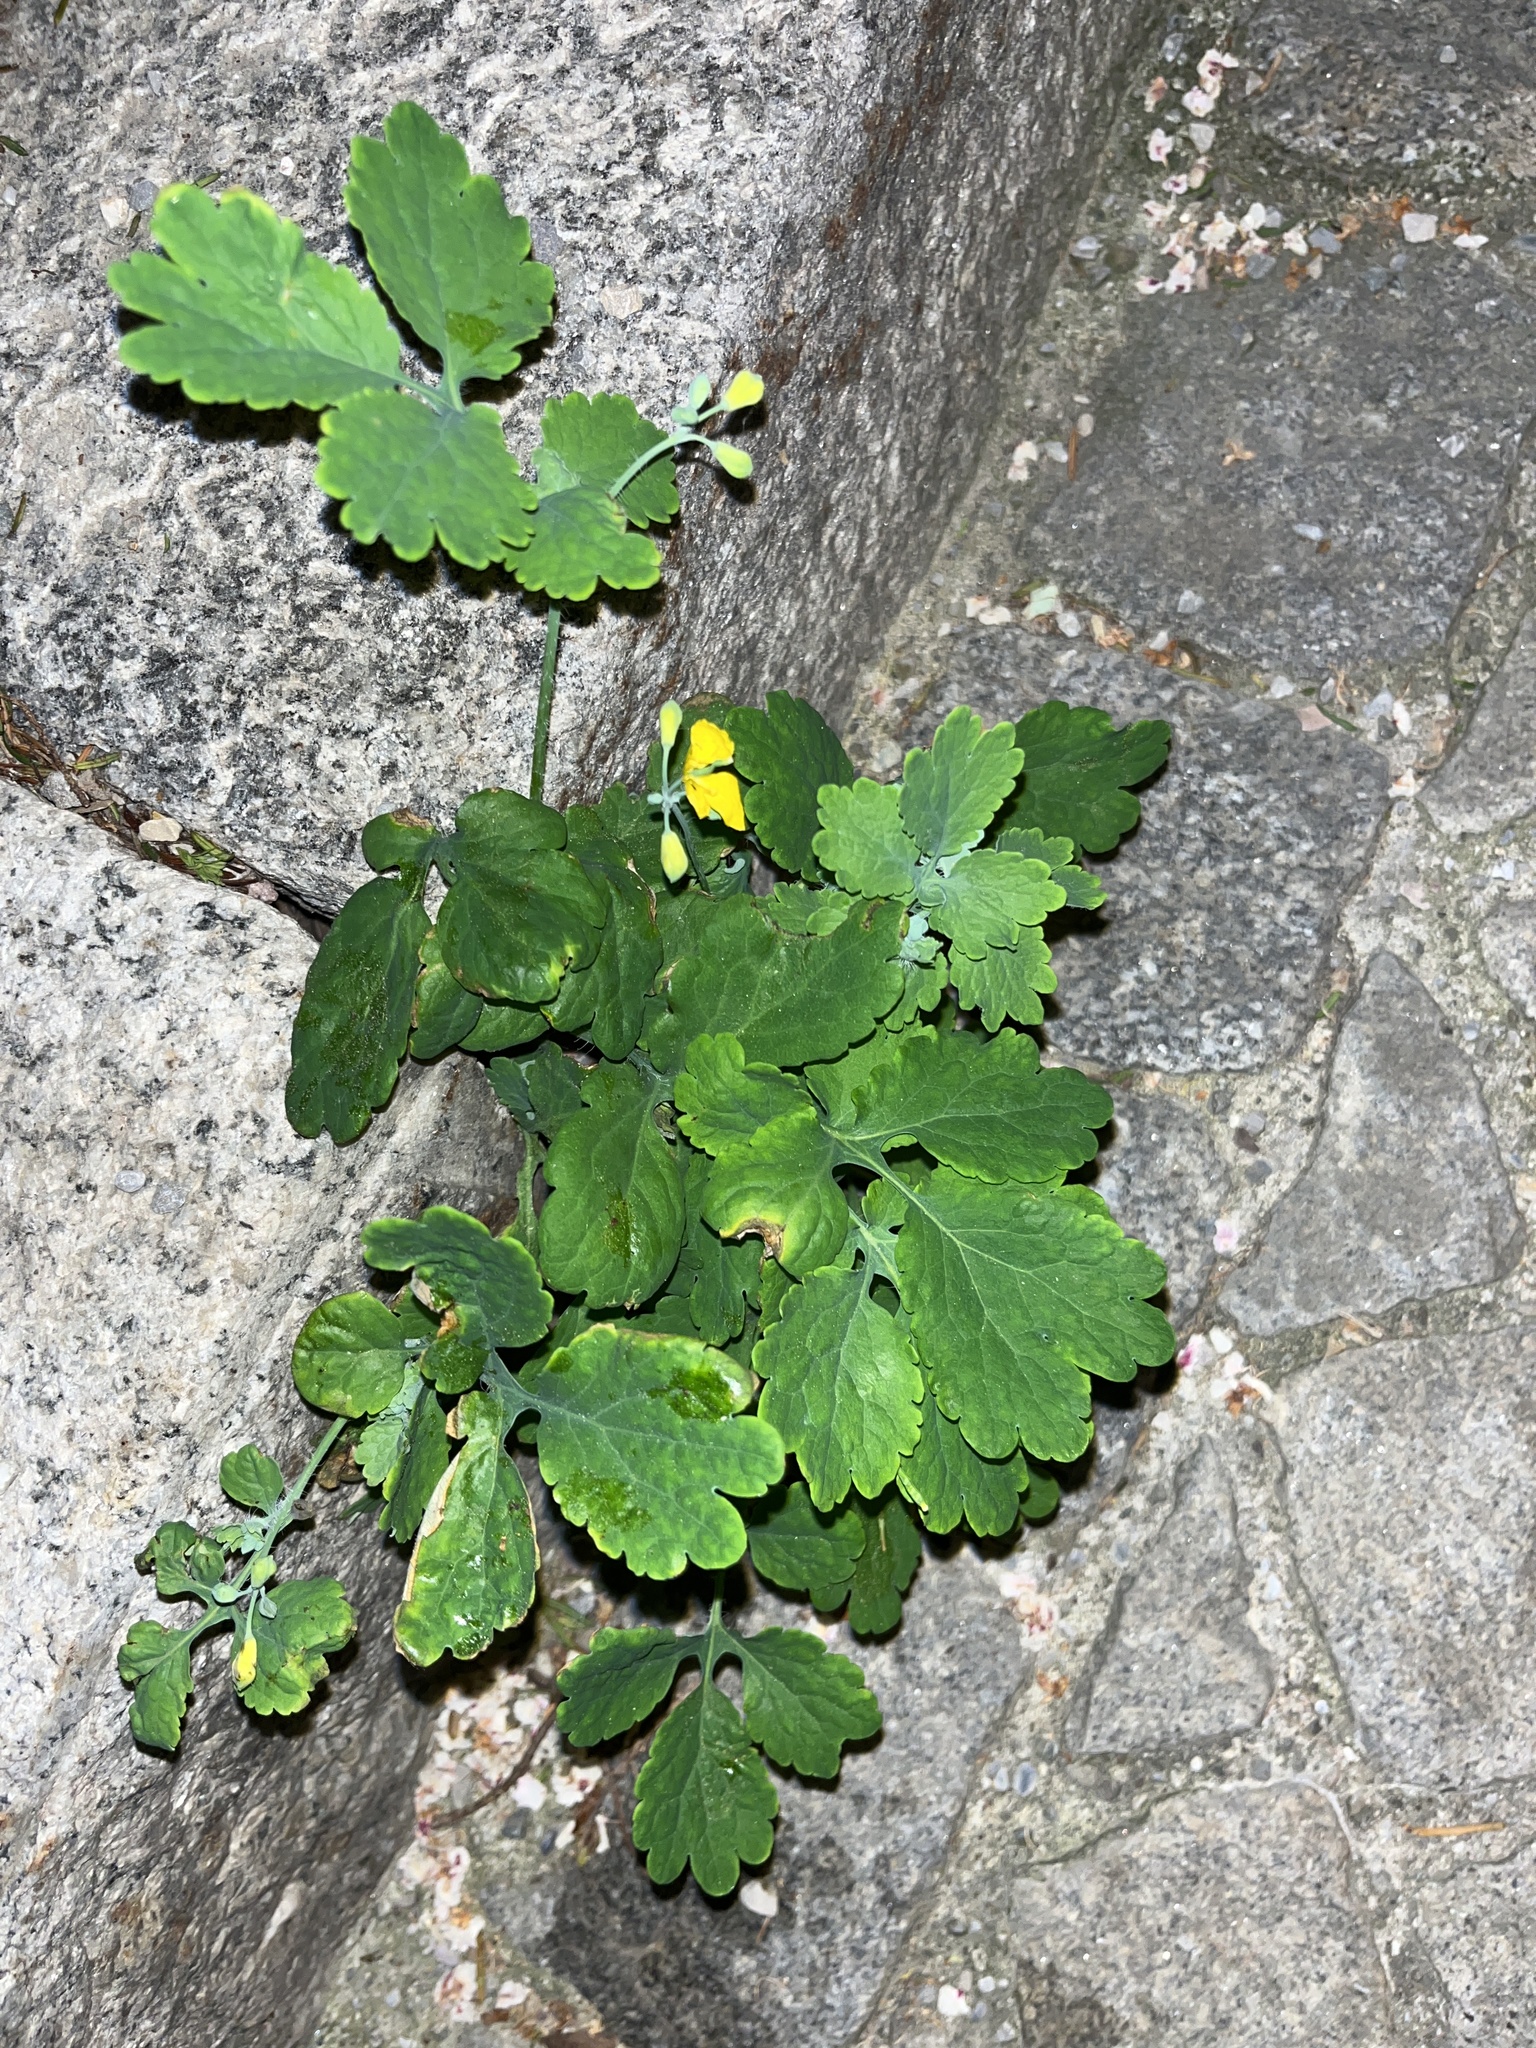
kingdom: Plantae
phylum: Tracheophyta
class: Magnoliopsida
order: Ranunculales
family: Papaveraceae
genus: Chelidonium
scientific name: Chelidonium majus
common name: Greater celandine
